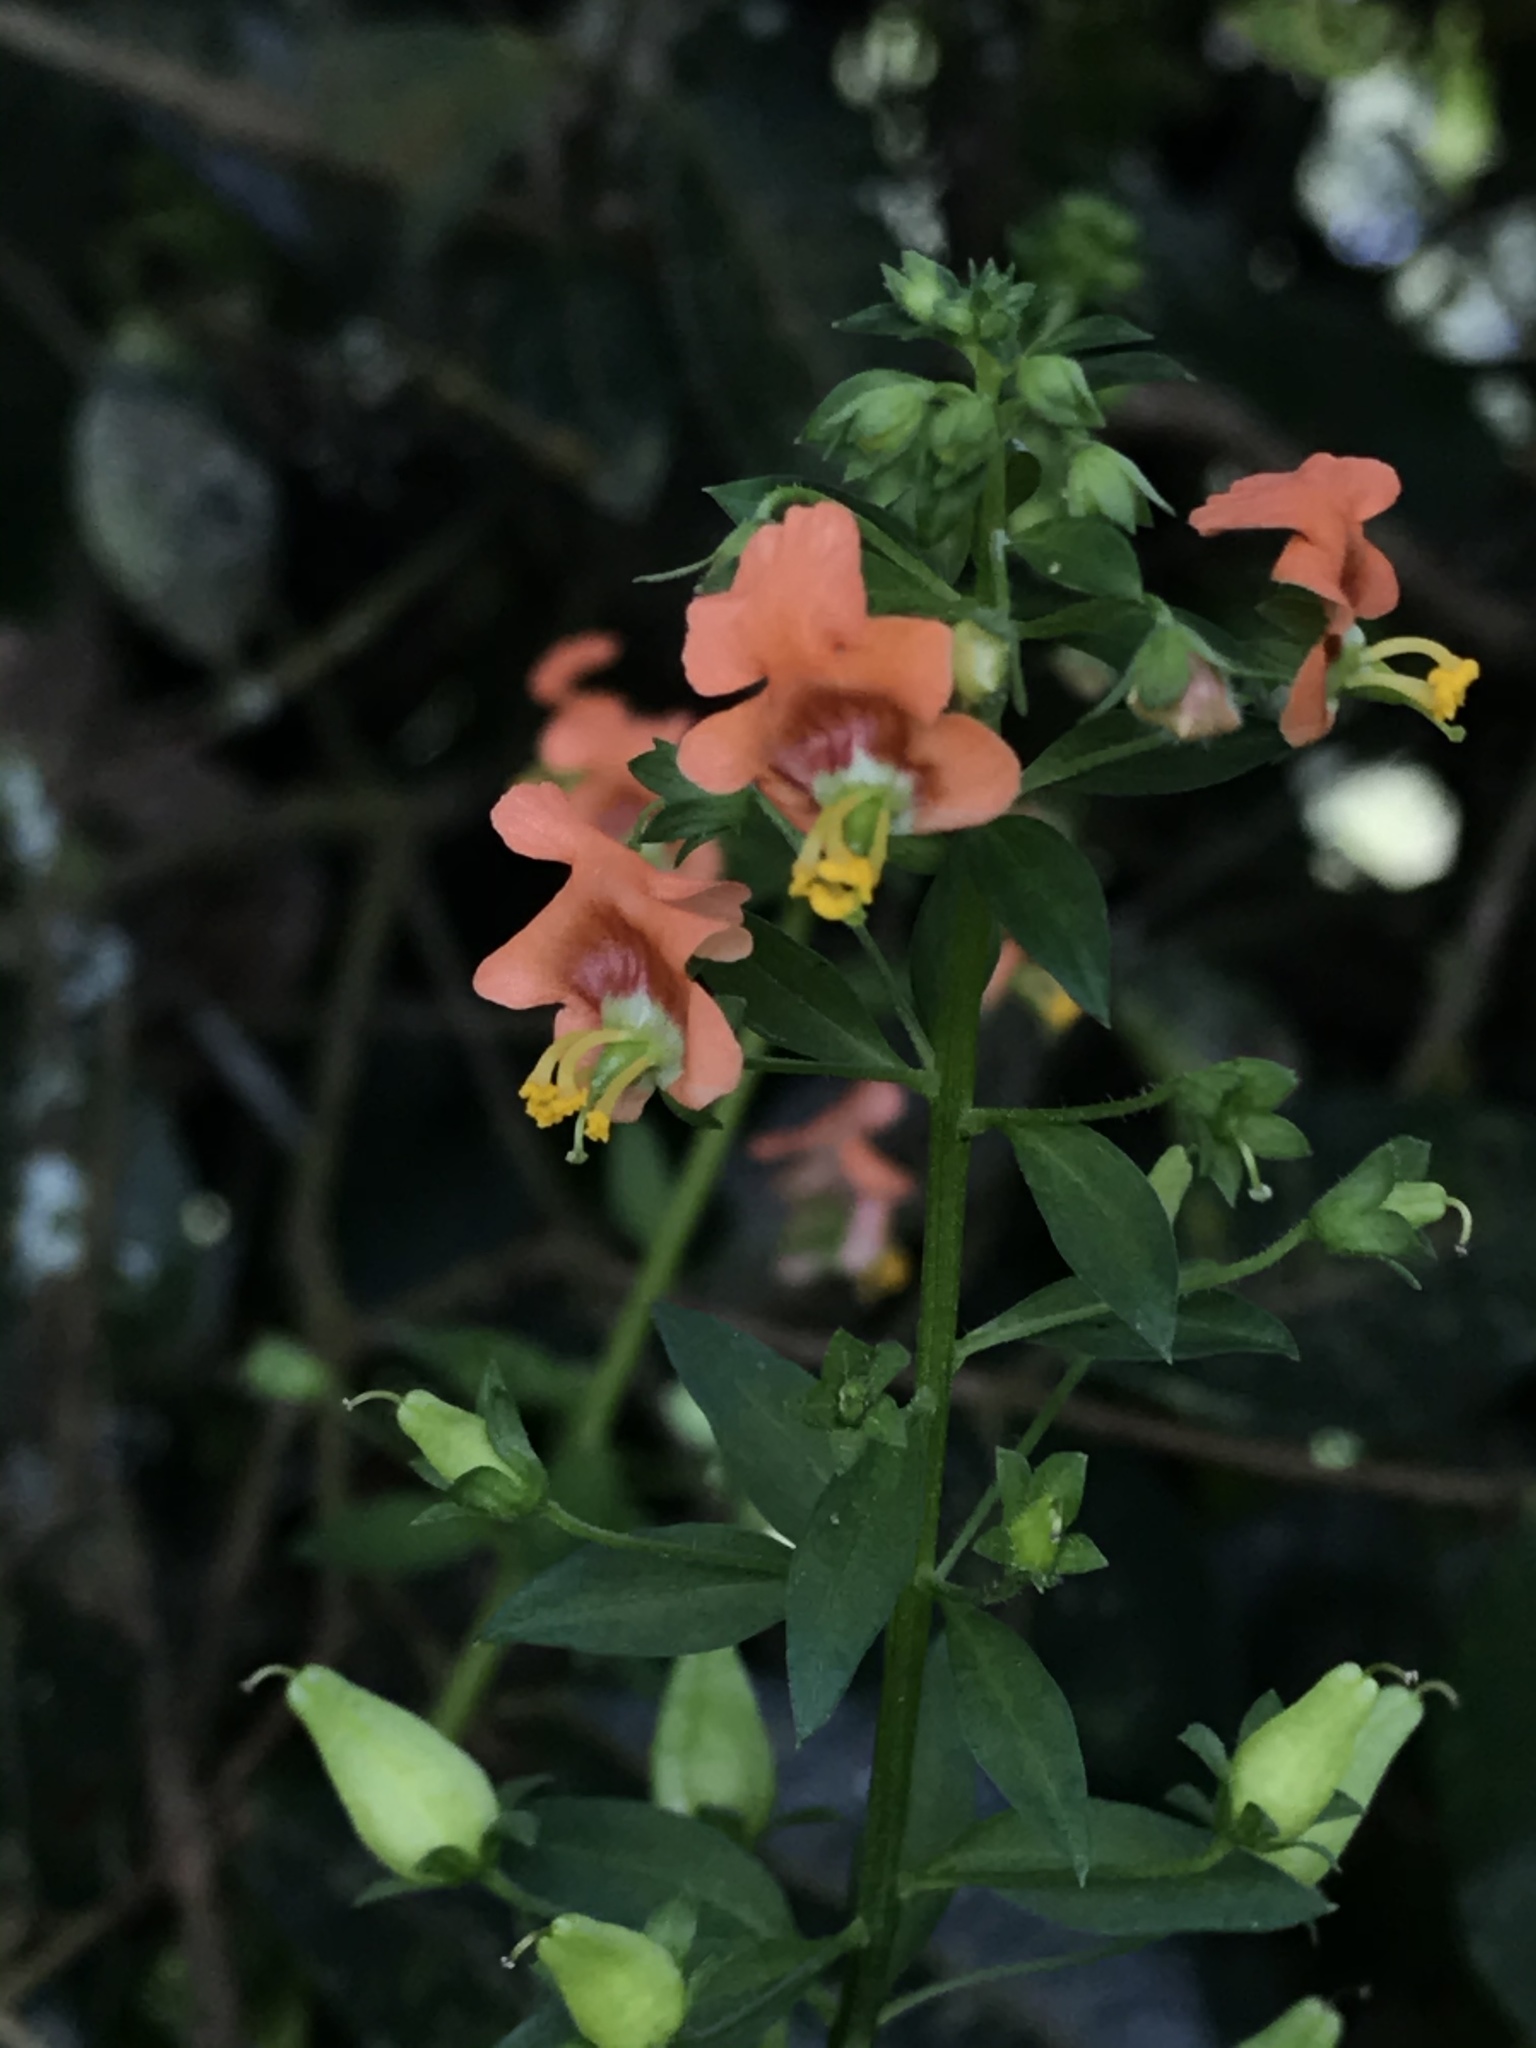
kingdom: Plantae
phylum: Tracheophyta
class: Magnoliopsida
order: Lamiales
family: Scrophulariaceae
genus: Alonsoa
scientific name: Alonsoa meridionalis
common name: Maskflower
